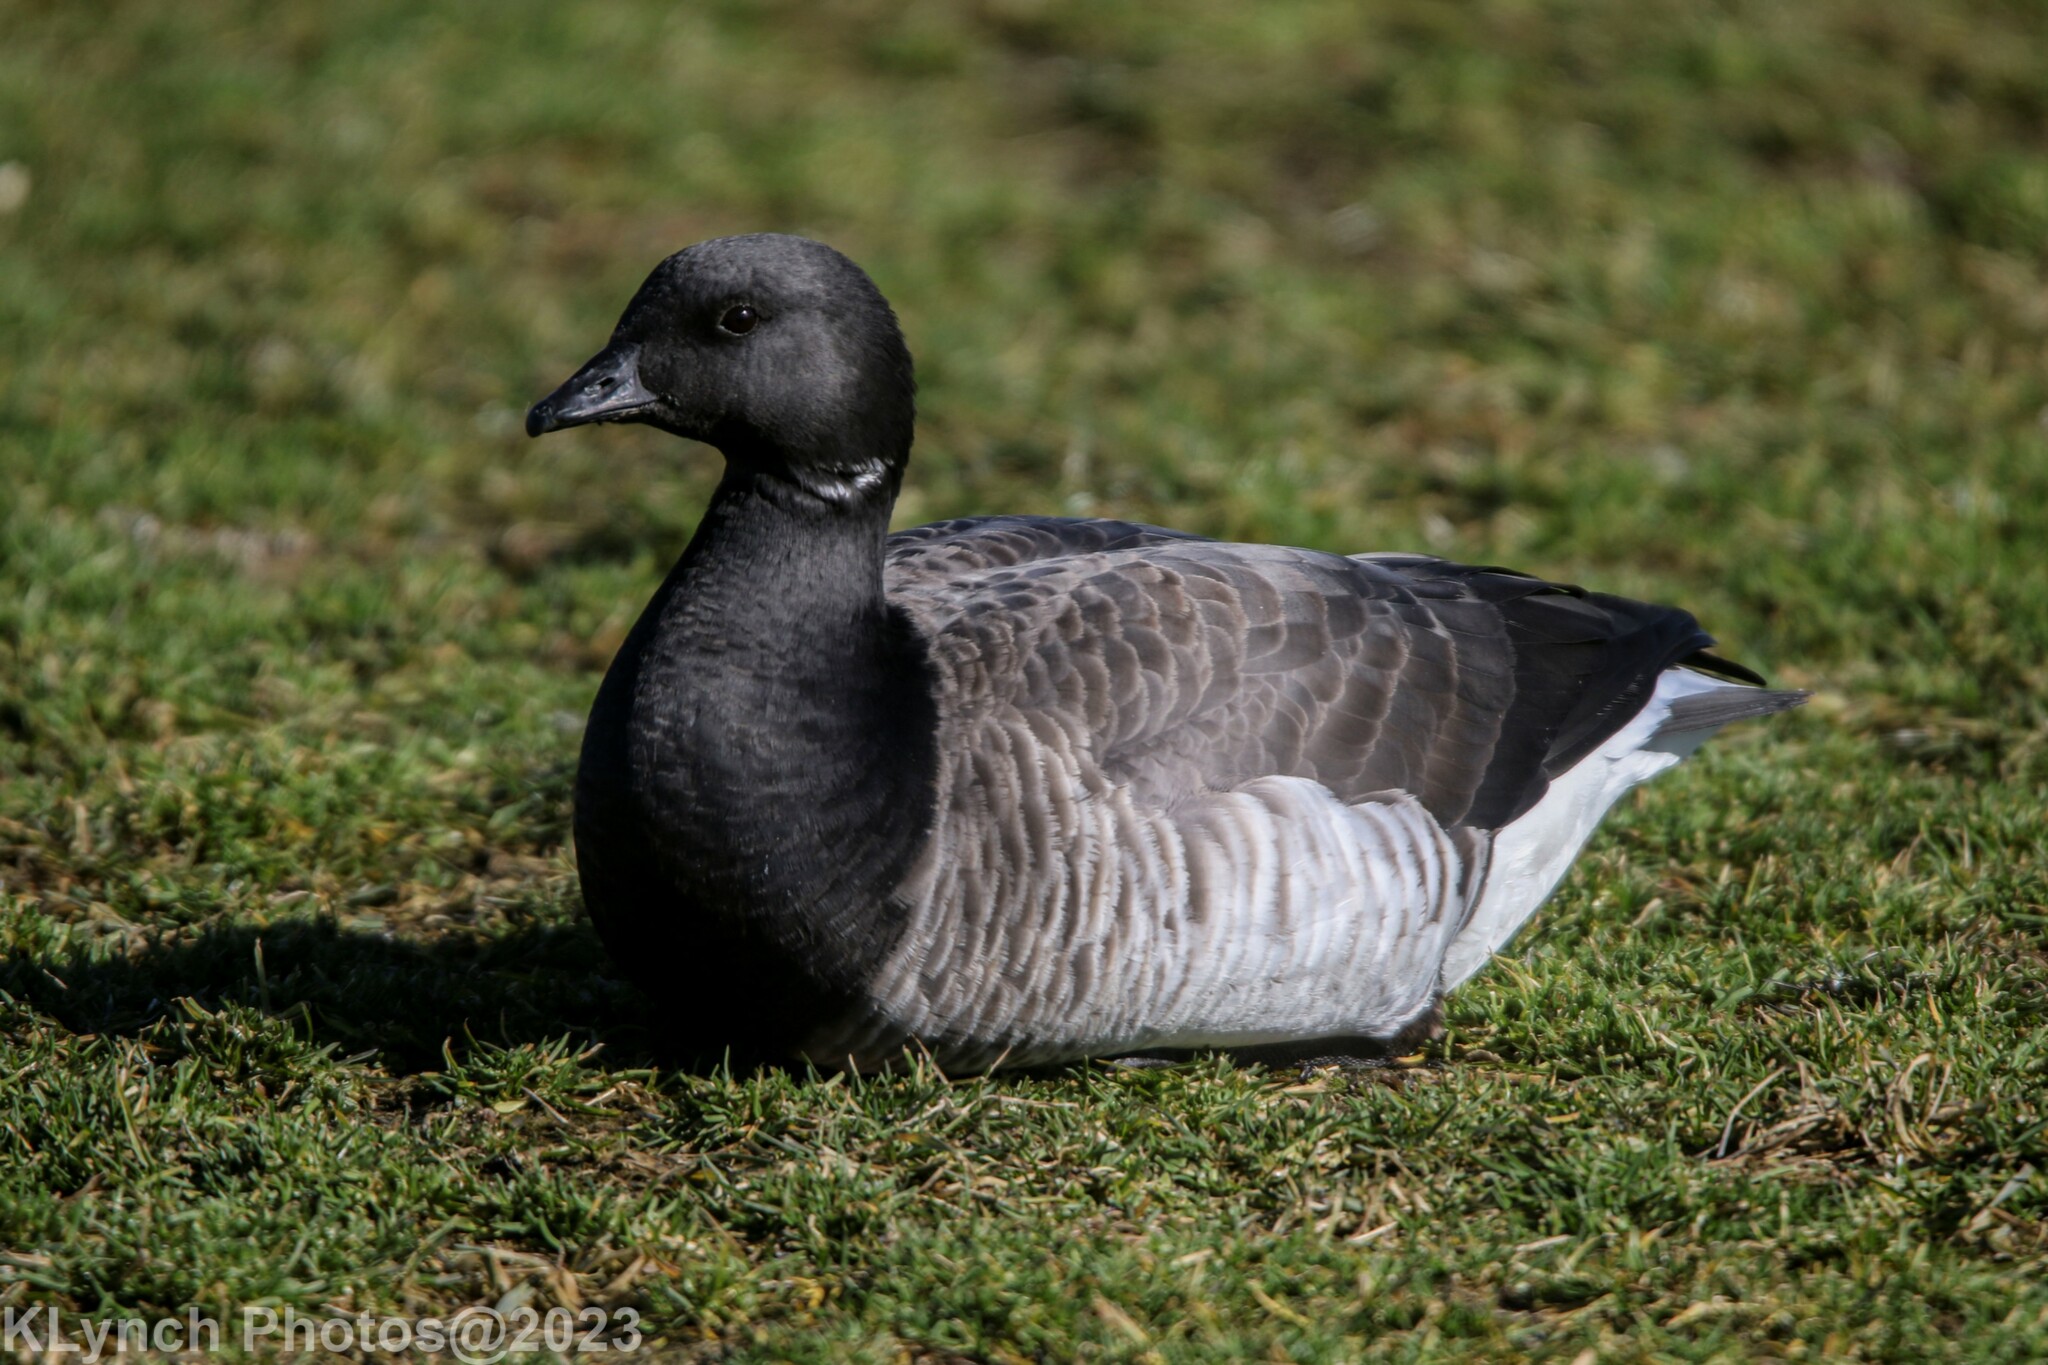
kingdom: Animalia
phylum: Chordata
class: Aves
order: Anseriformes
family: Anatidae
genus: Branta
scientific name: Branta bernicla
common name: Brant goose
